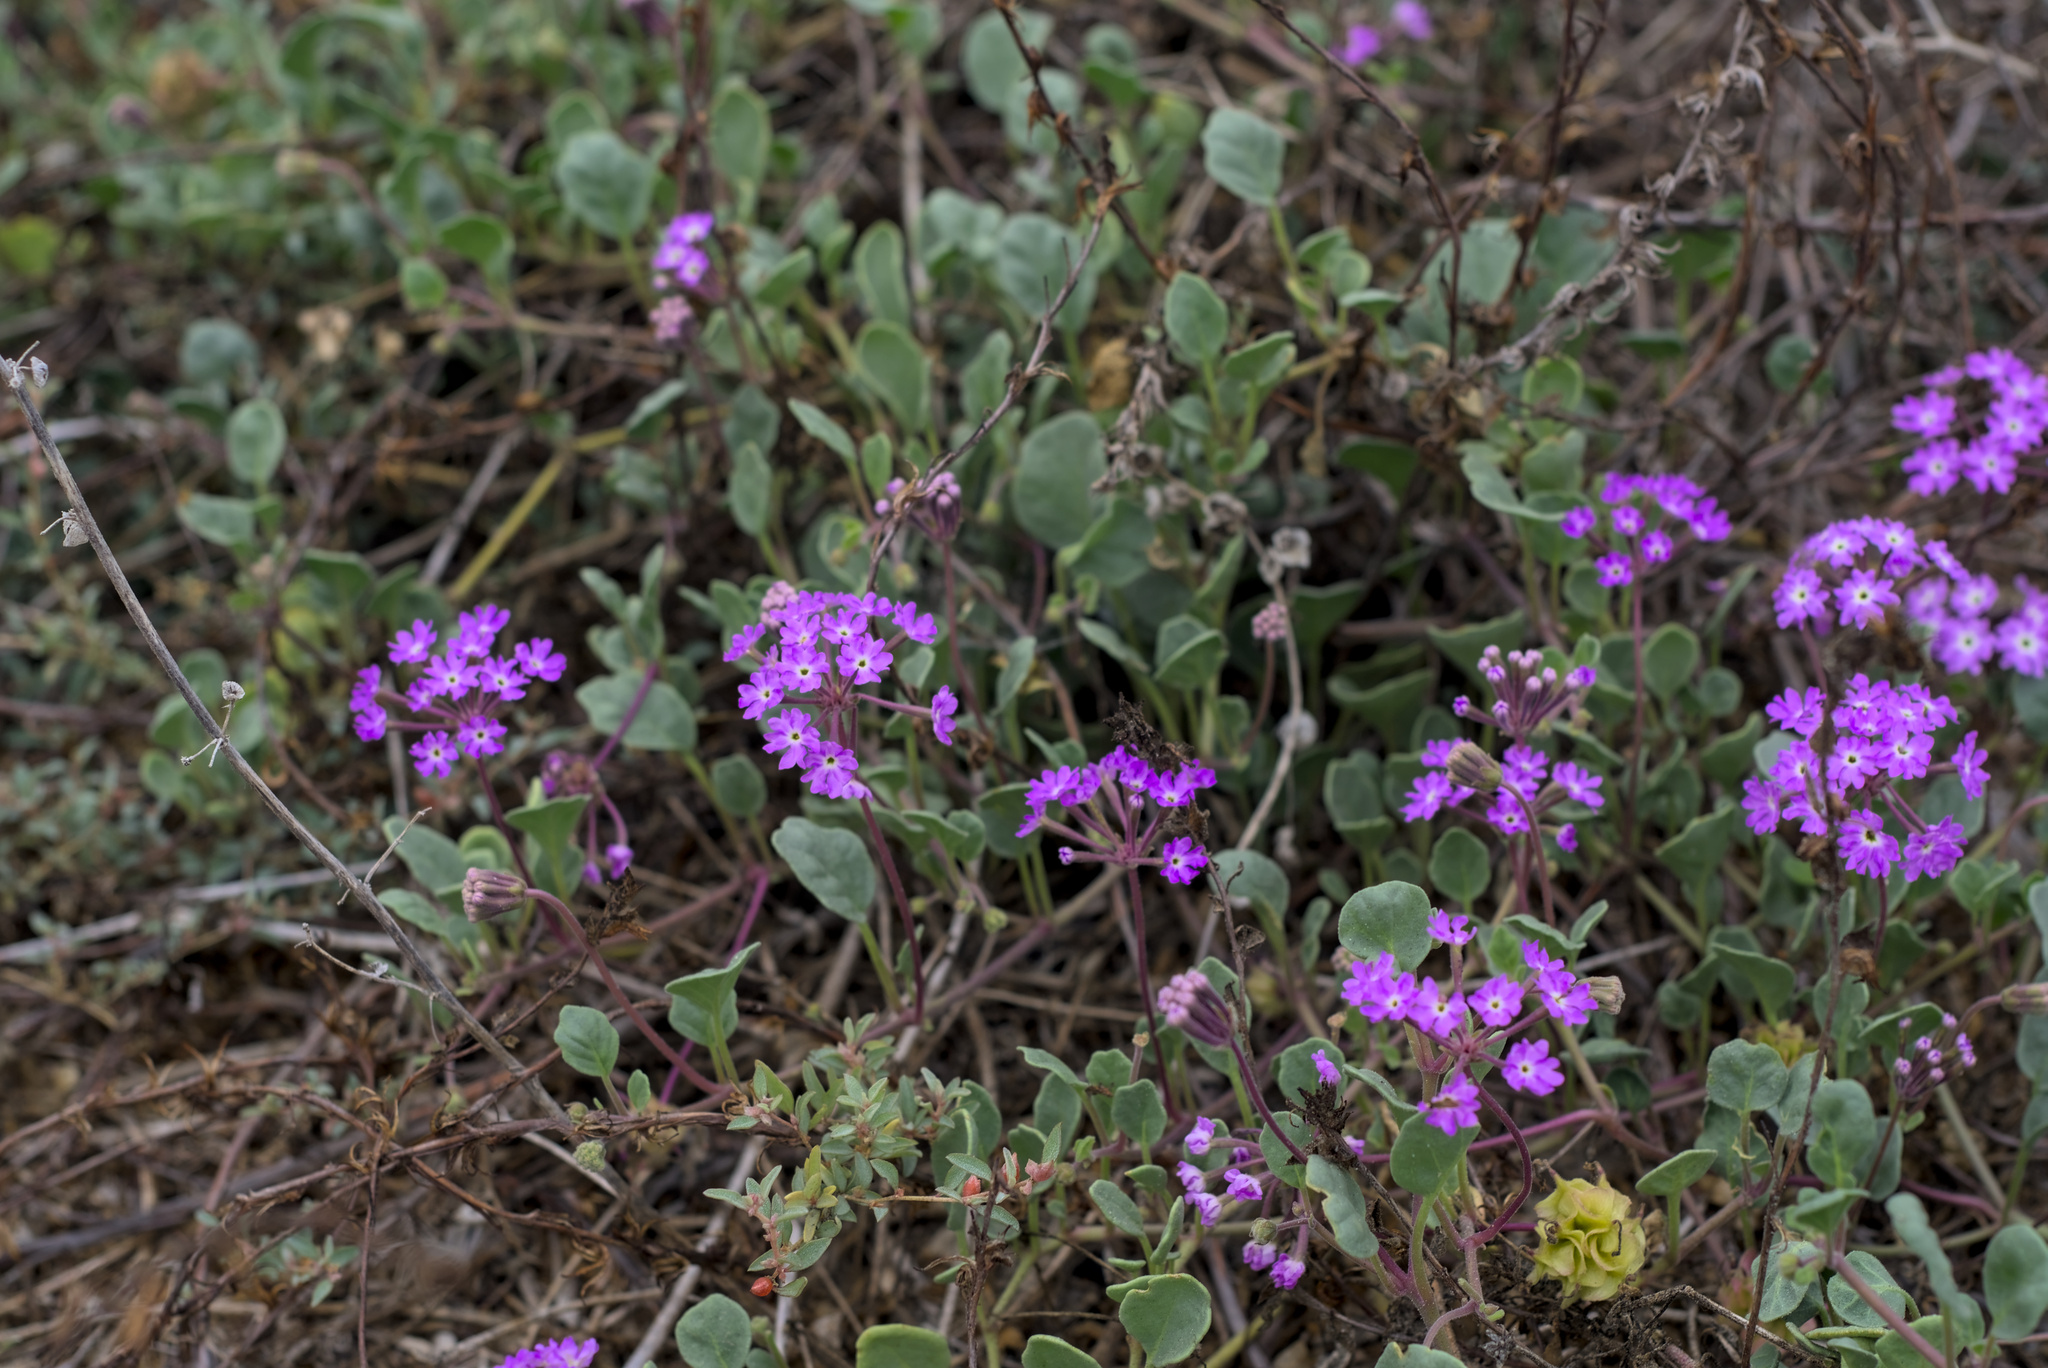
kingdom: Plantae
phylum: Tracheophyta
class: Magnoliopsida
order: Caryophyllales
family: Nyctaginaceae
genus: Abronia
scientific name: Abronia umbellata
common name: Sand-verbena
